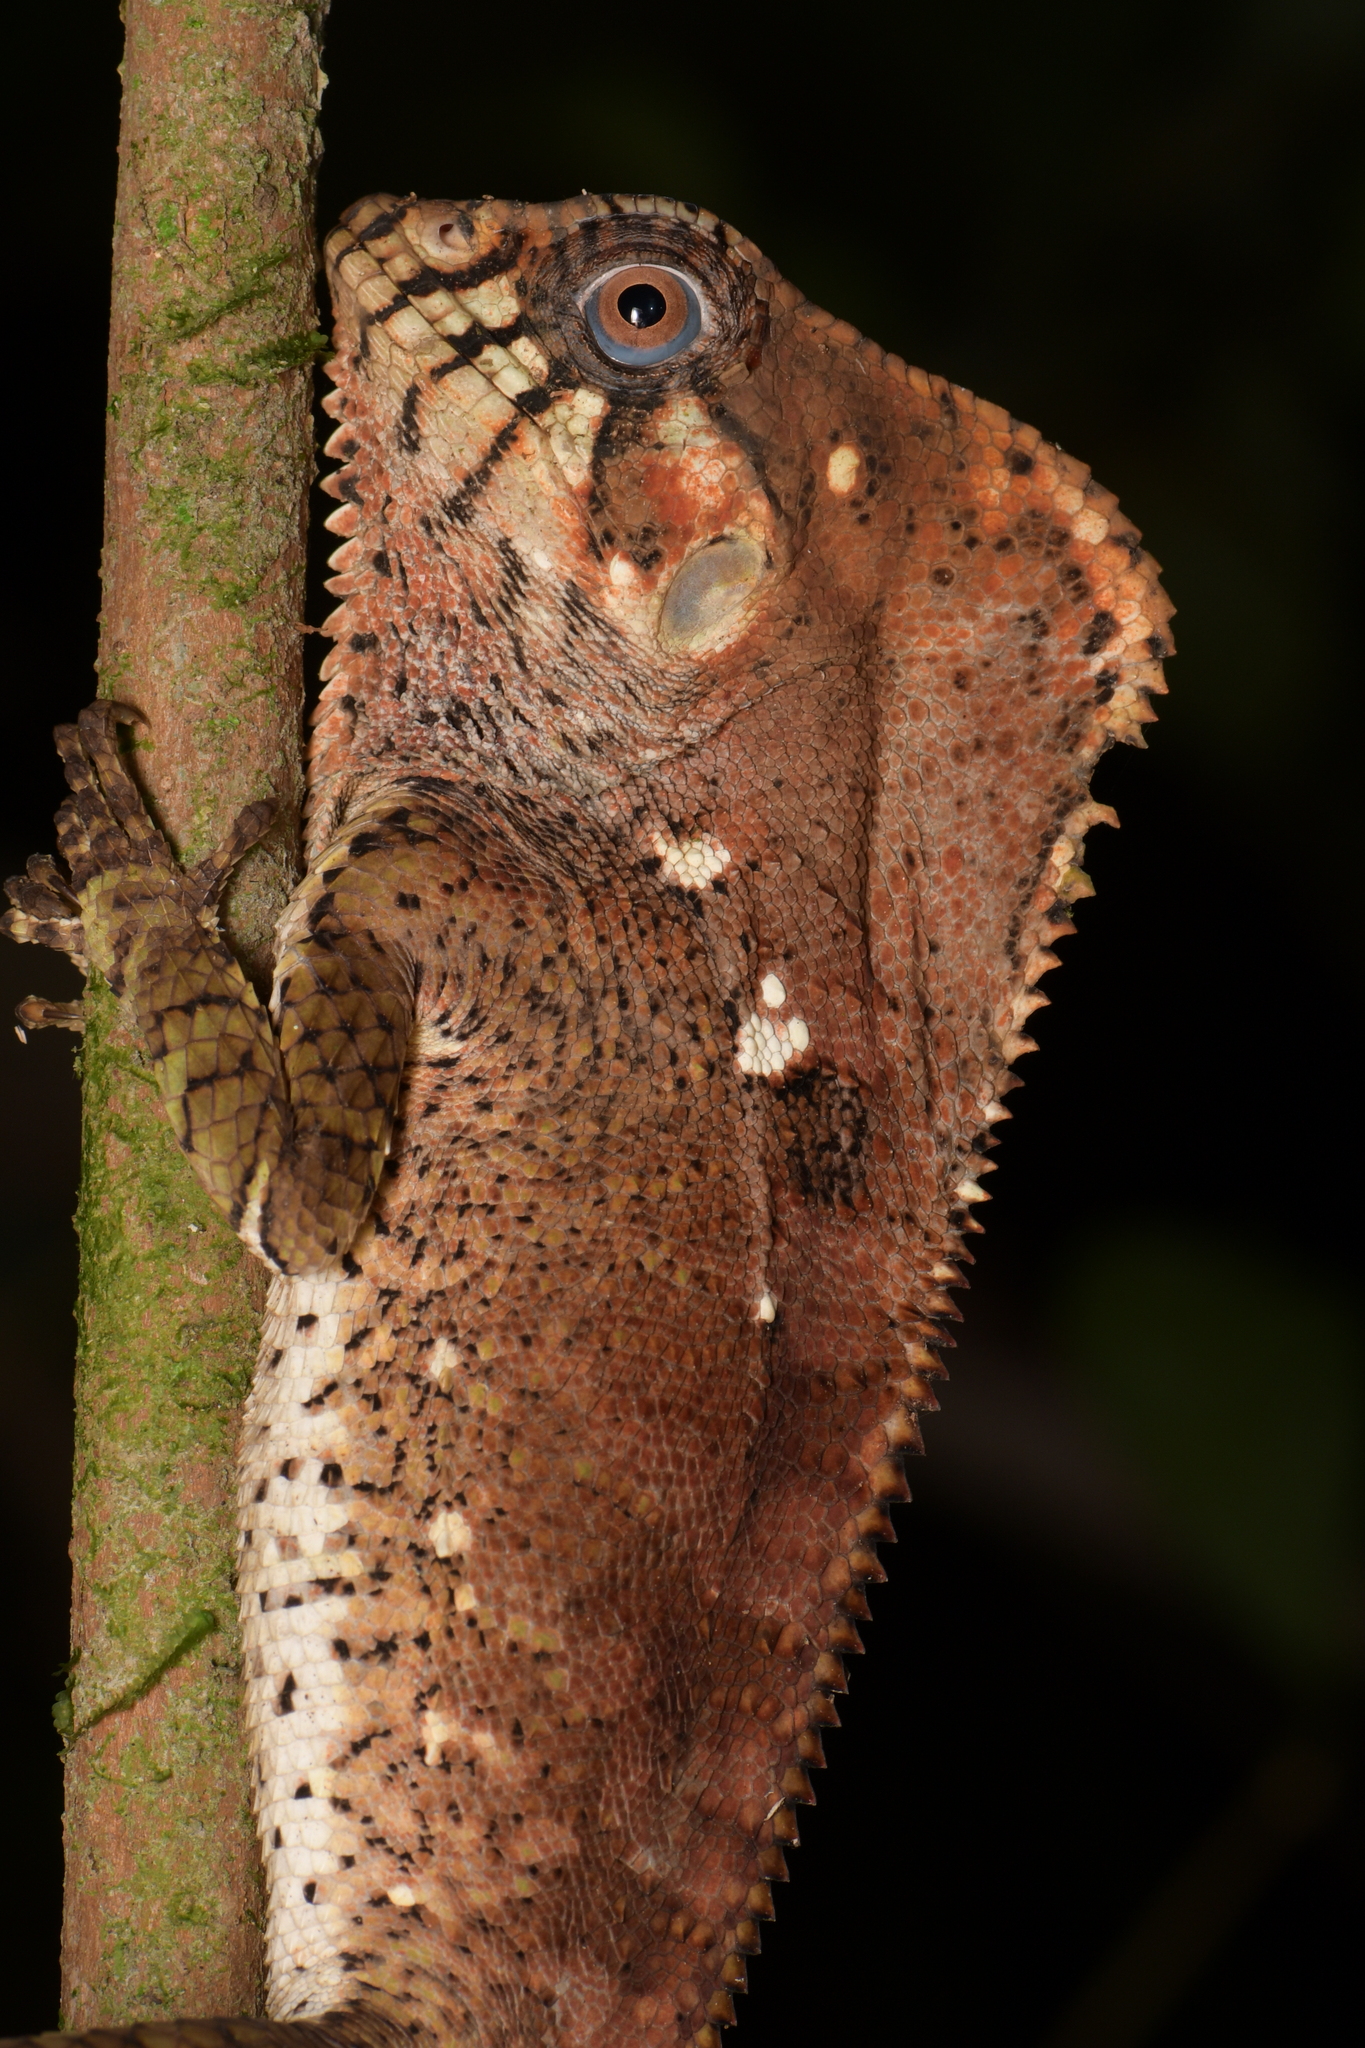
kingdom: Animalia
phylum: Chordata
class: Squamata
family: Corytophanidae
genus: Corytophanes
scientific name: Corytophanes cristatus
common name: Smooth helmeted iguana
